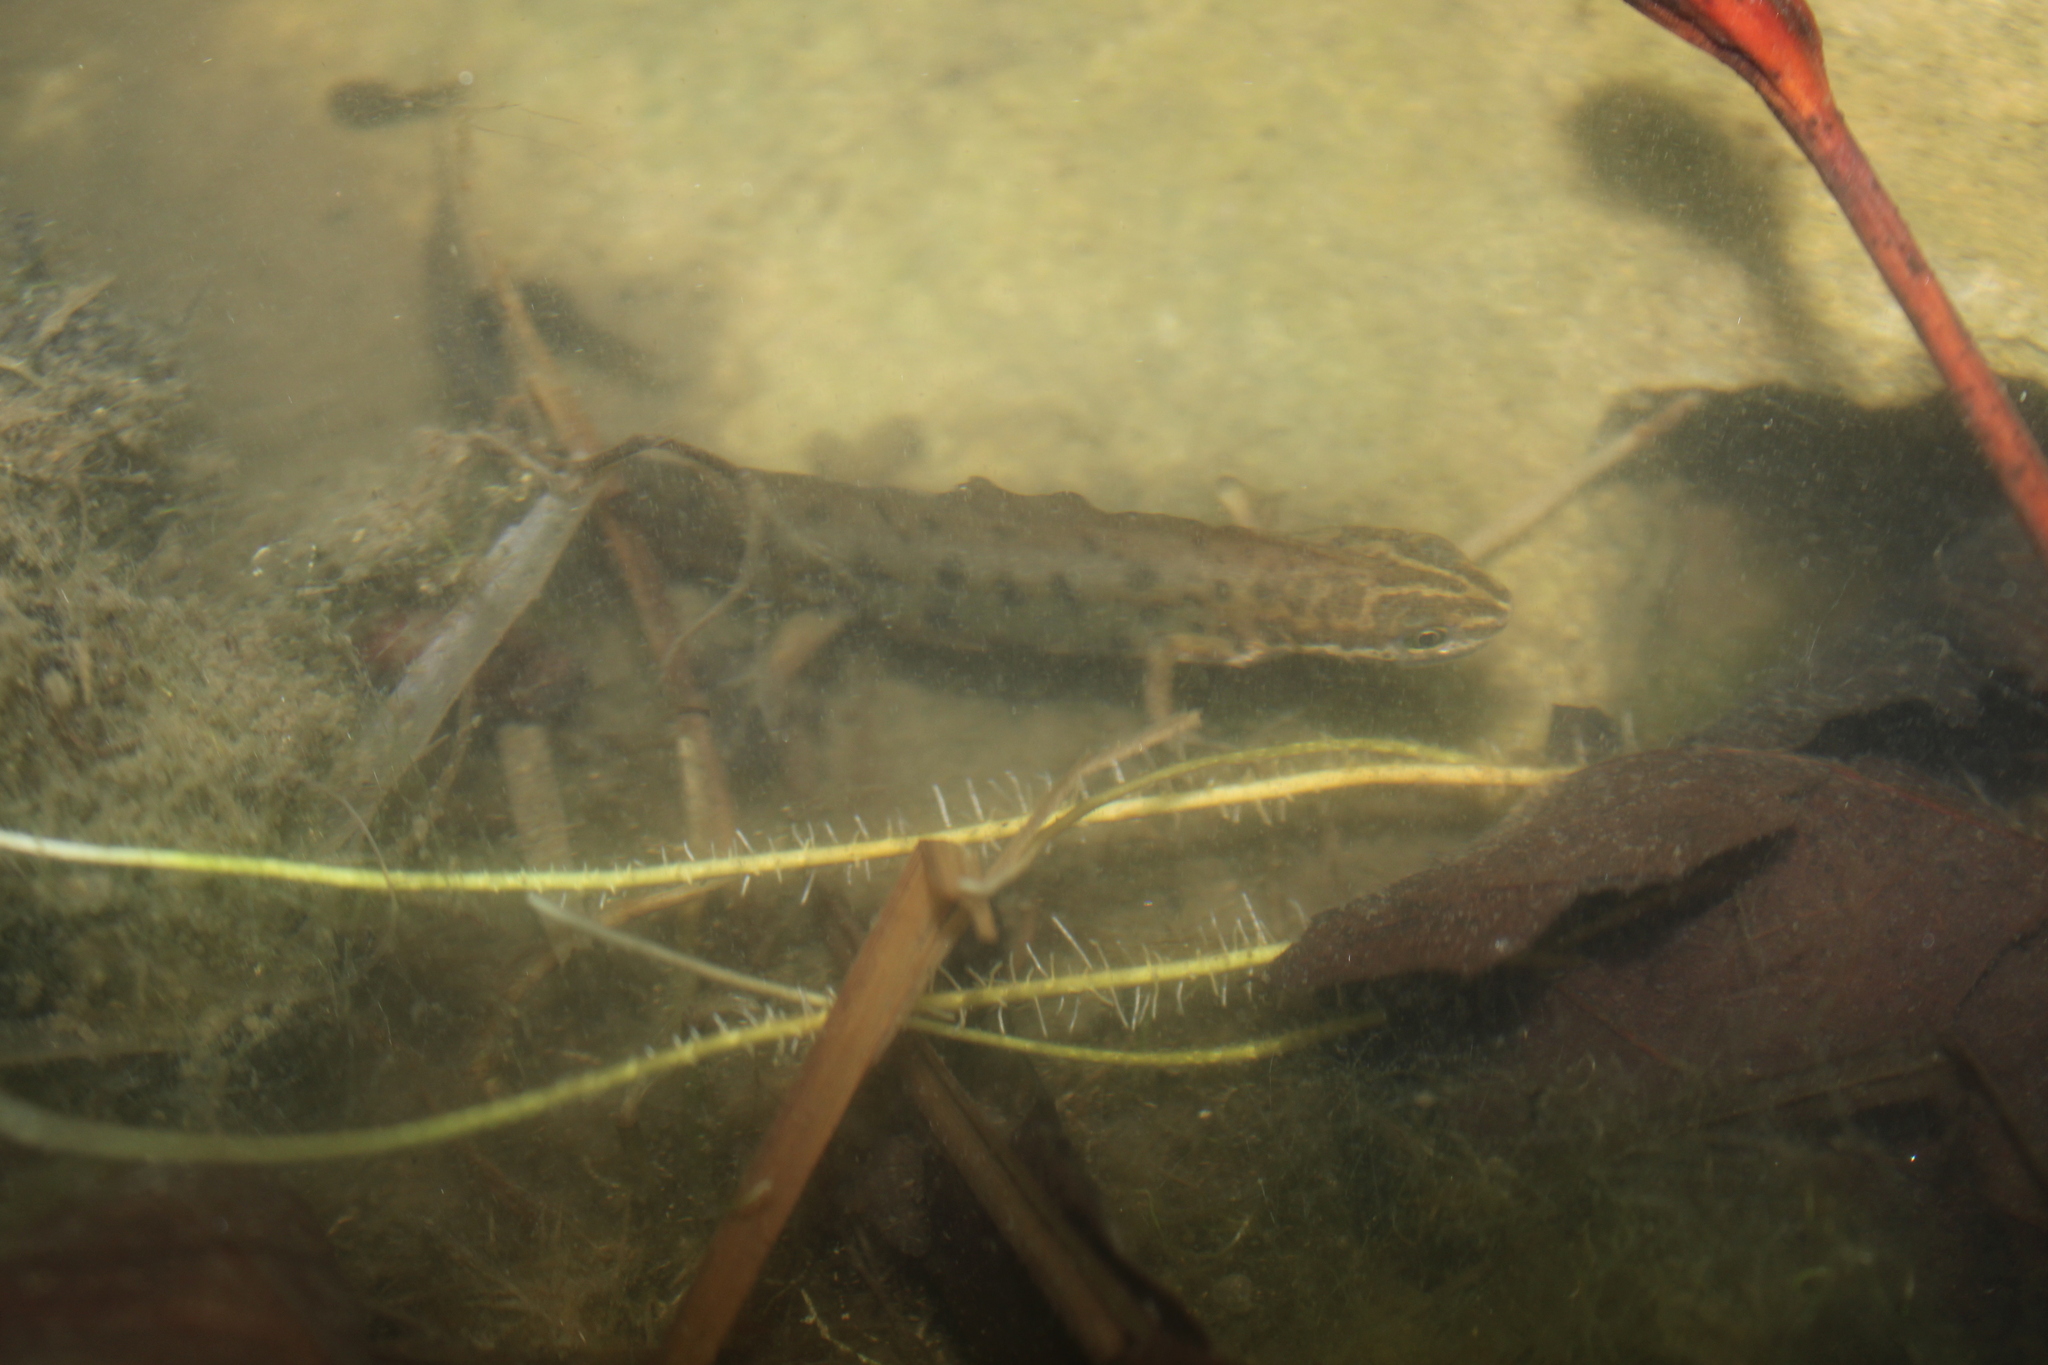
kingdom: Animalia
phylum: Chordata
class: Amphibia
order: Caudata
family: Salamandridae
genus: Lissotriton
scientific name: Lissotriton vulgaris
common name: Smooth newt
